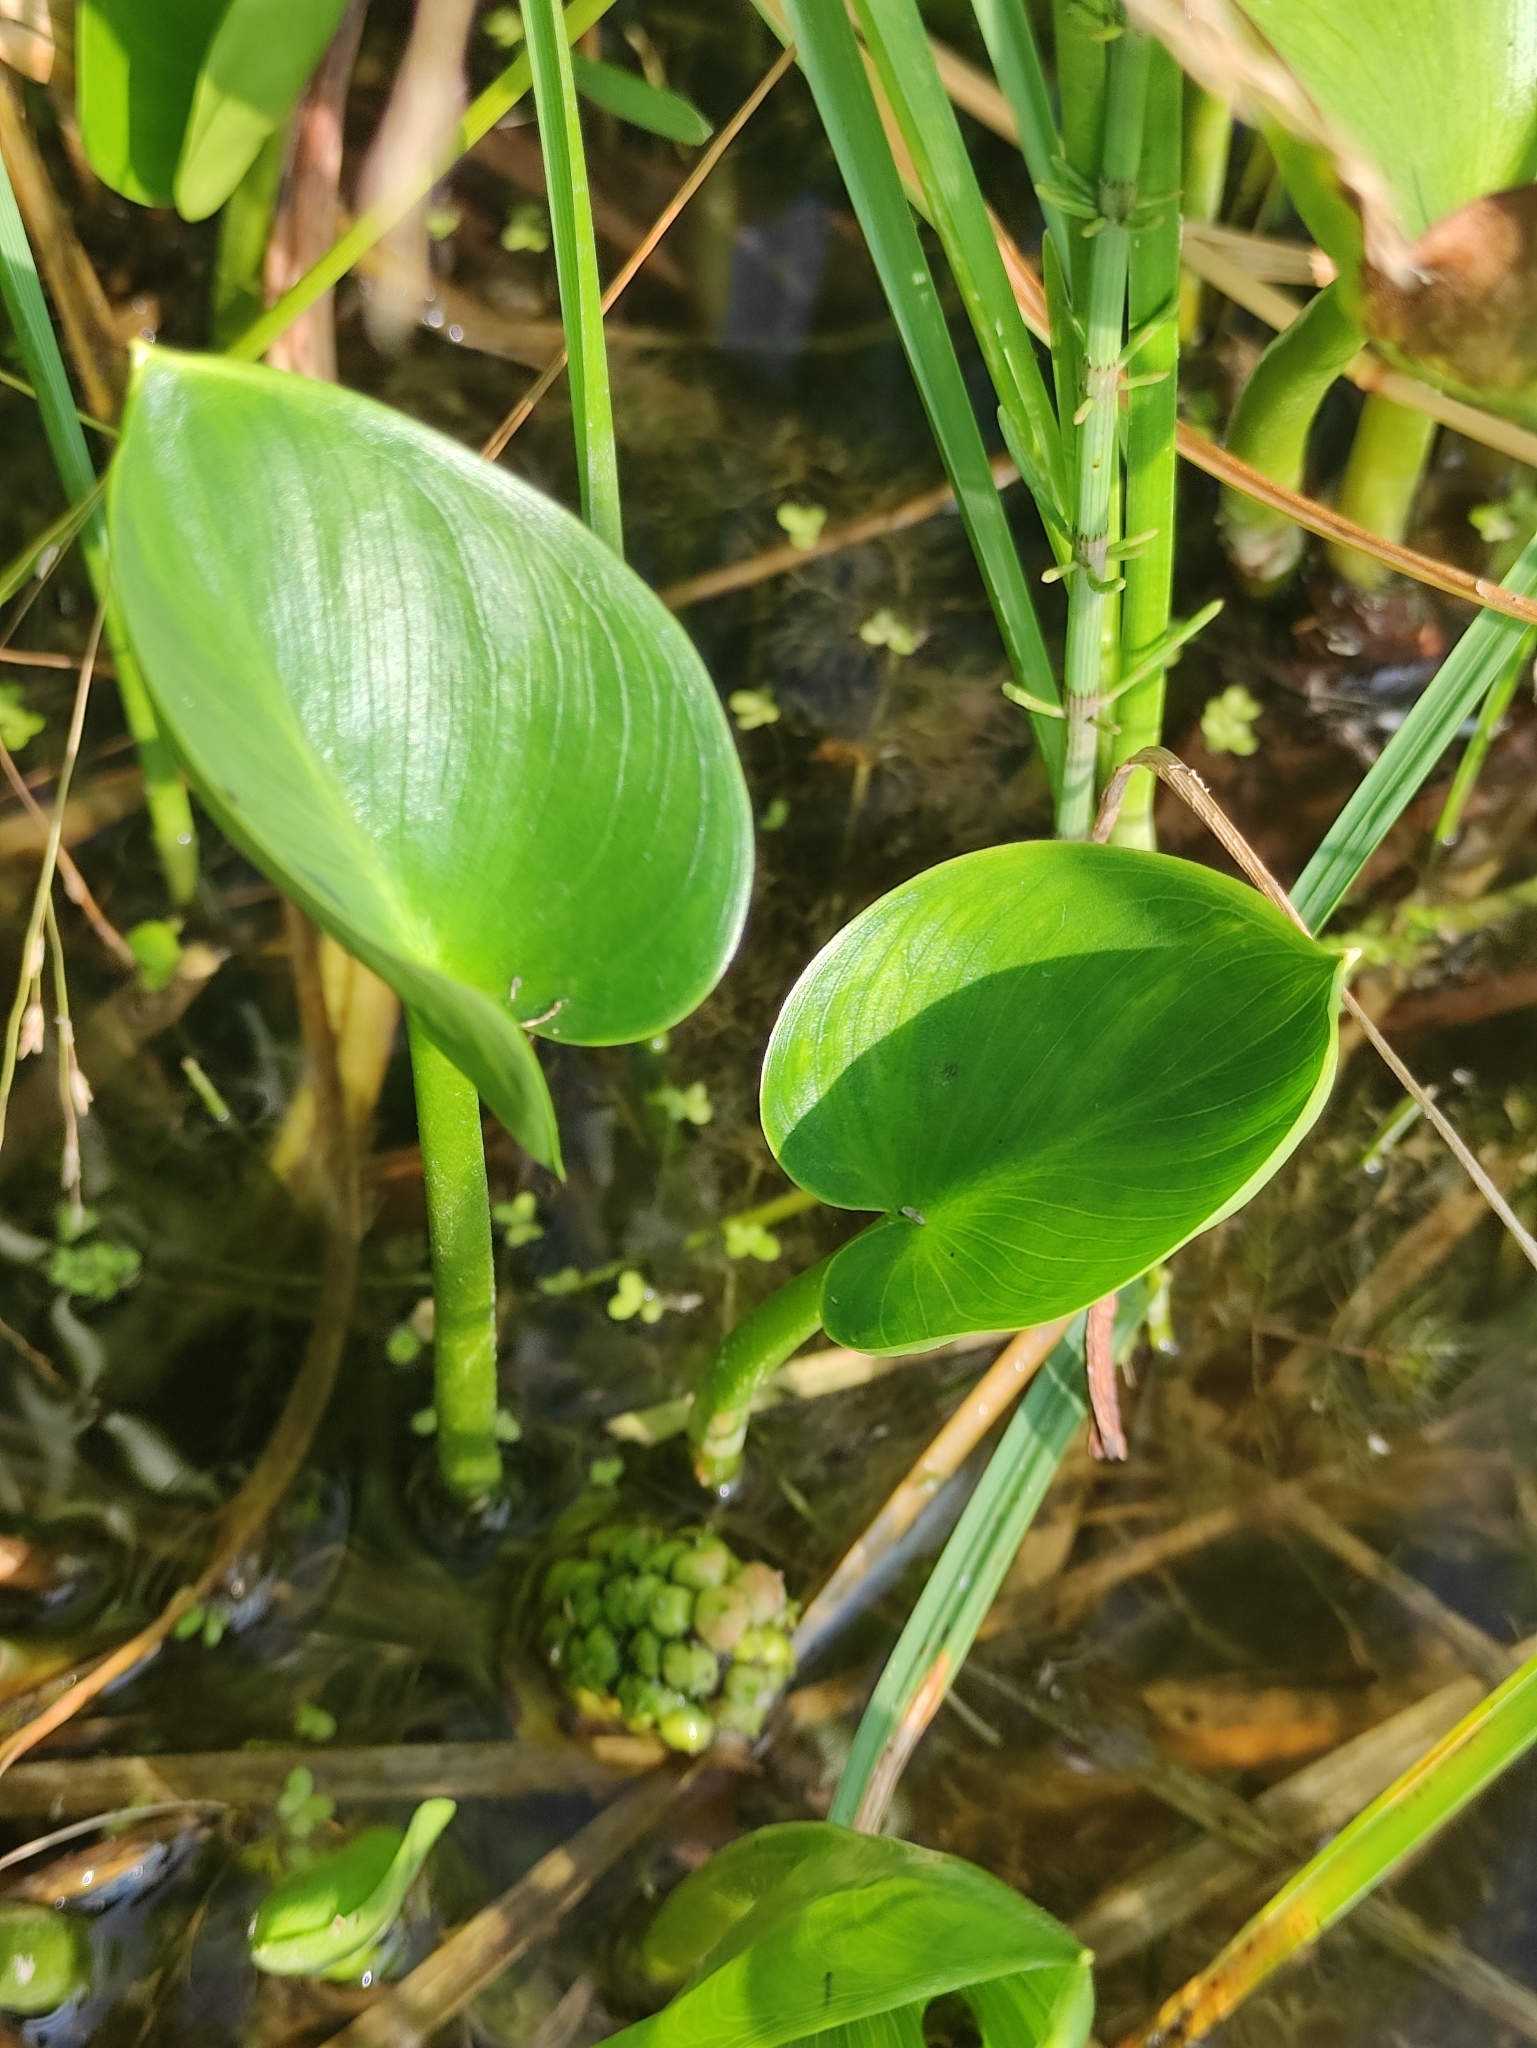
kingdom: Plantae
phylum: Tracheophyta
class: Liliopsida
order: Alismatales
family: Araceae
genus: Calla
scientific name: Calla palustris
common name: Bog arum
